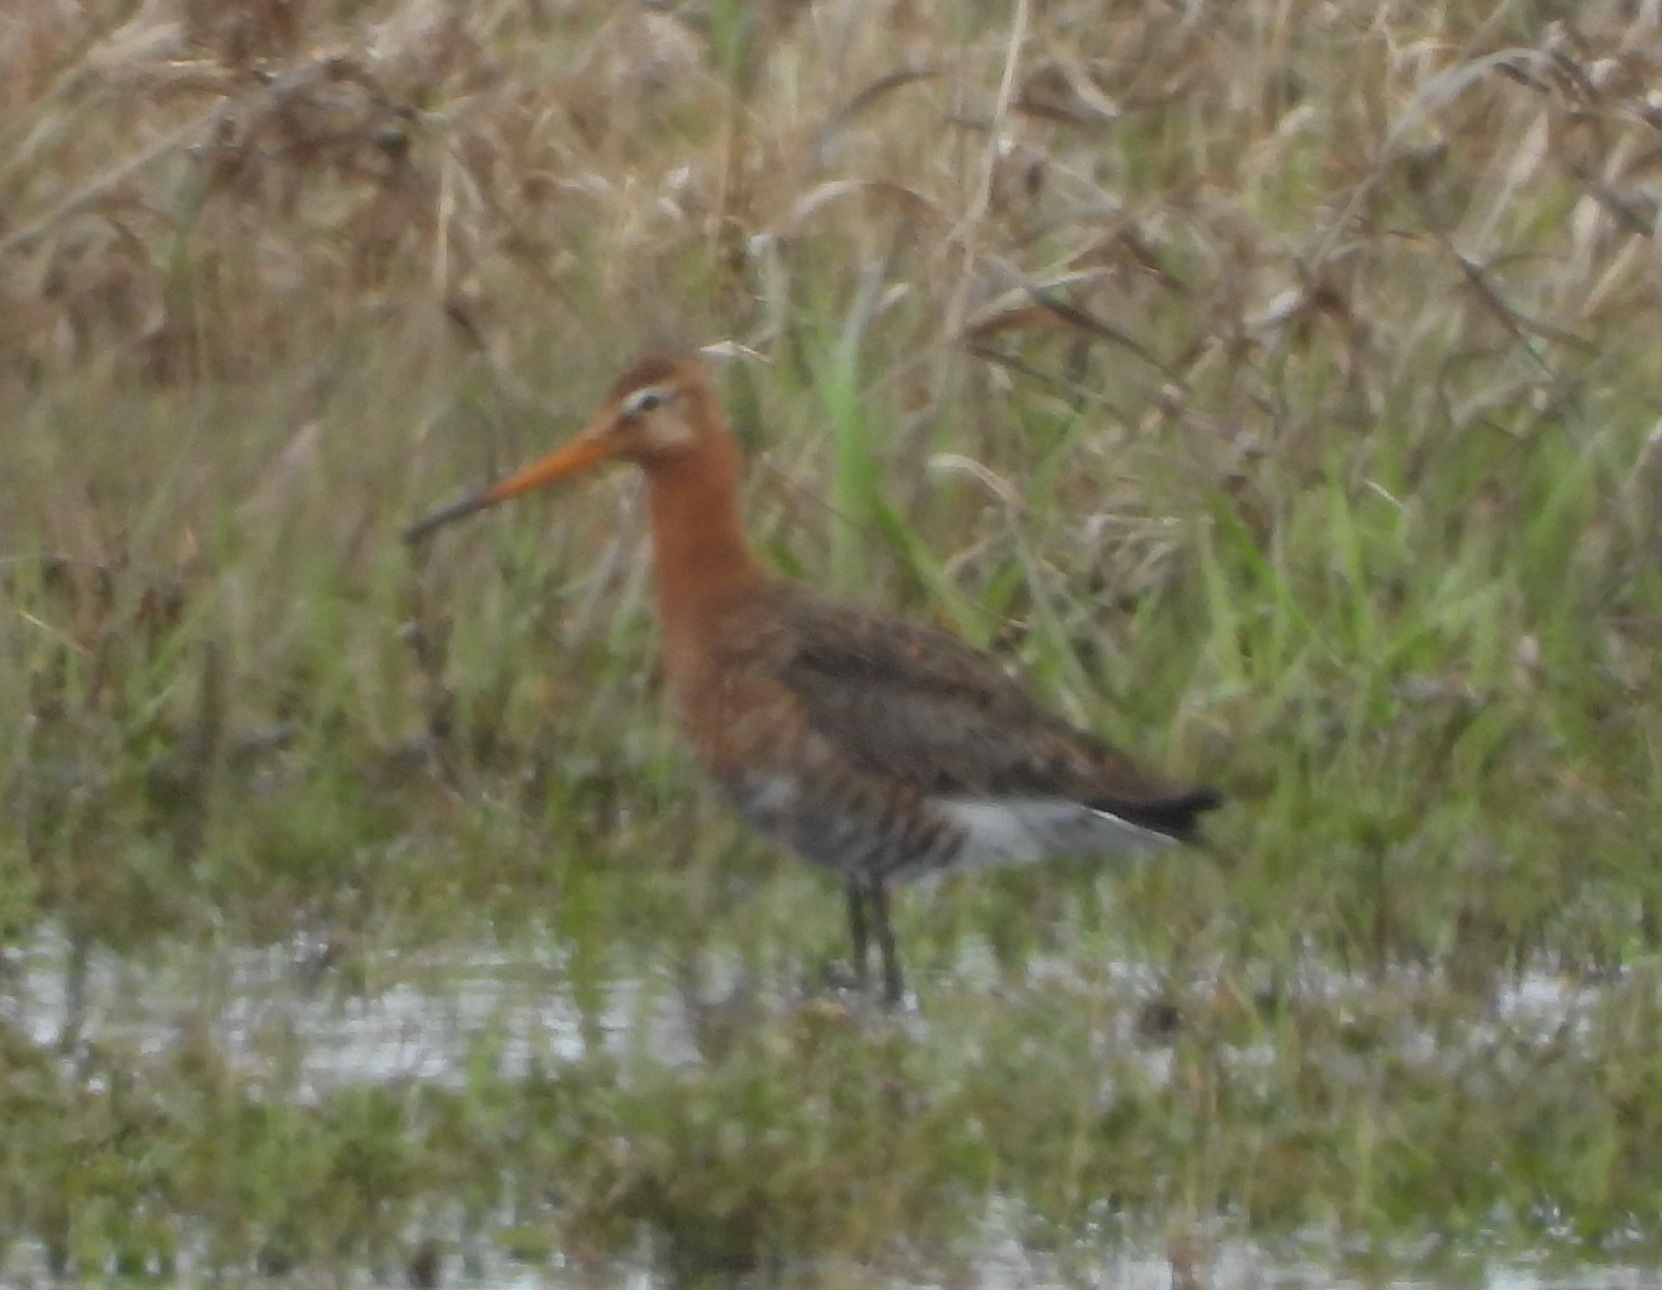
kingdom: Animalia
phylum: Chordata
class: Aves
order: Charadriiformes
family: Scolopacidae
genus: Limosa
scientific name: Limosa limosa
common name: Black-tailed godwit
